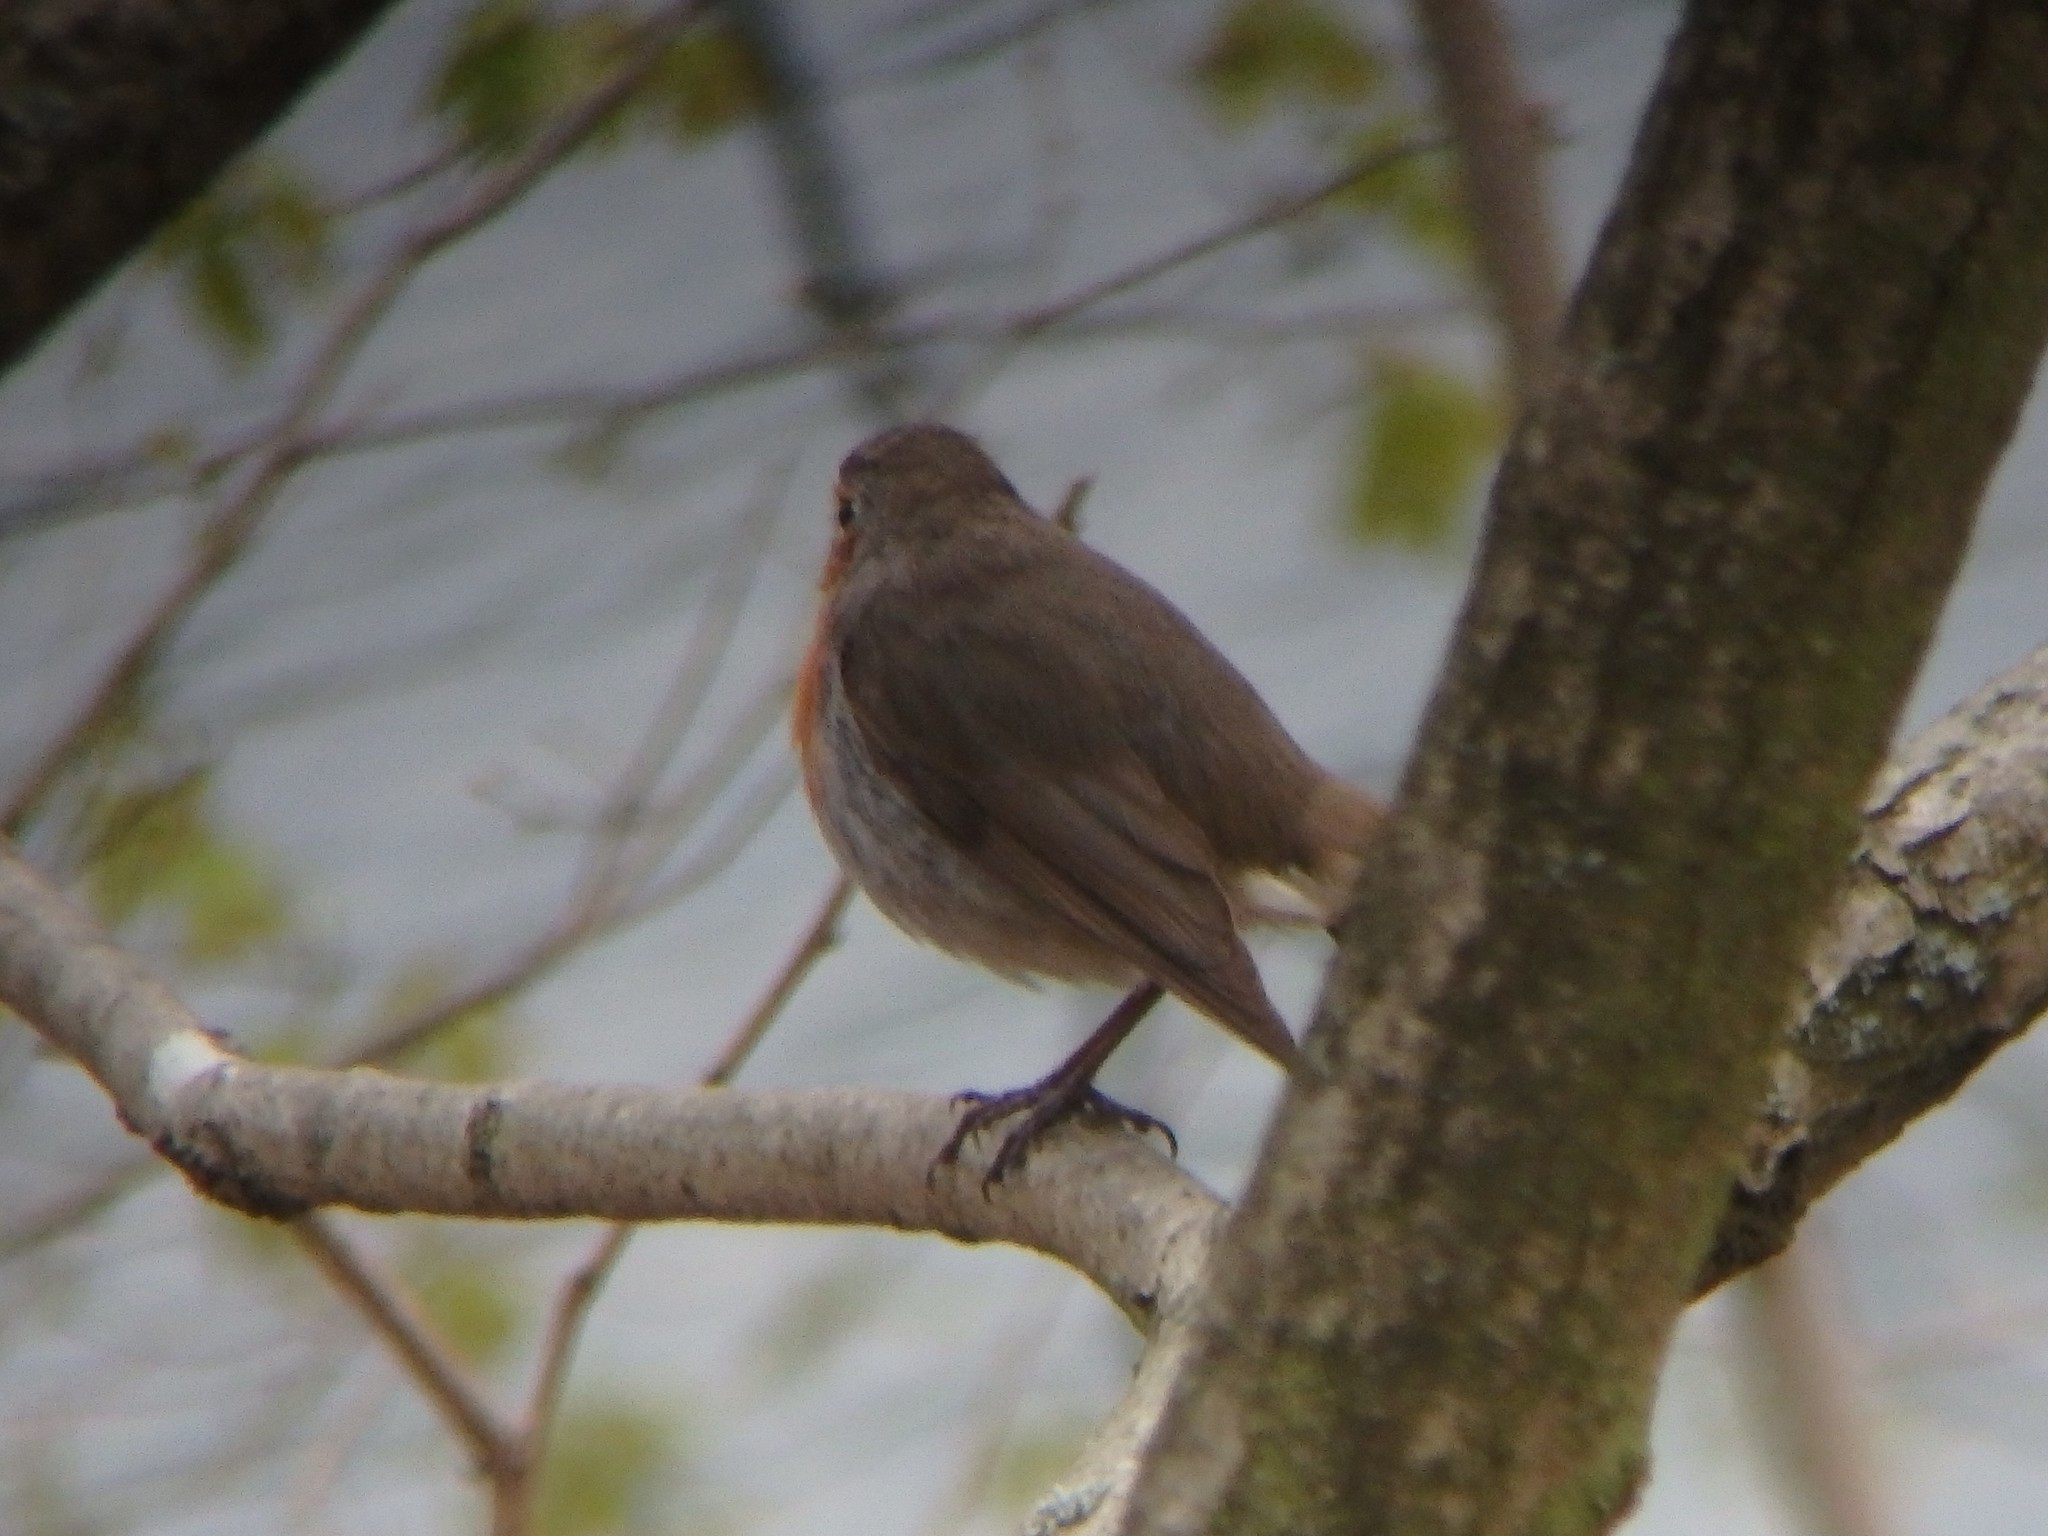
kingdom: Animalia
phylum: Chordata
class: Aves
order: Passeriformes
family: Muscicapidae
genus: Erithacus
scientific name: Erithacus rubecula
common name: European robin
